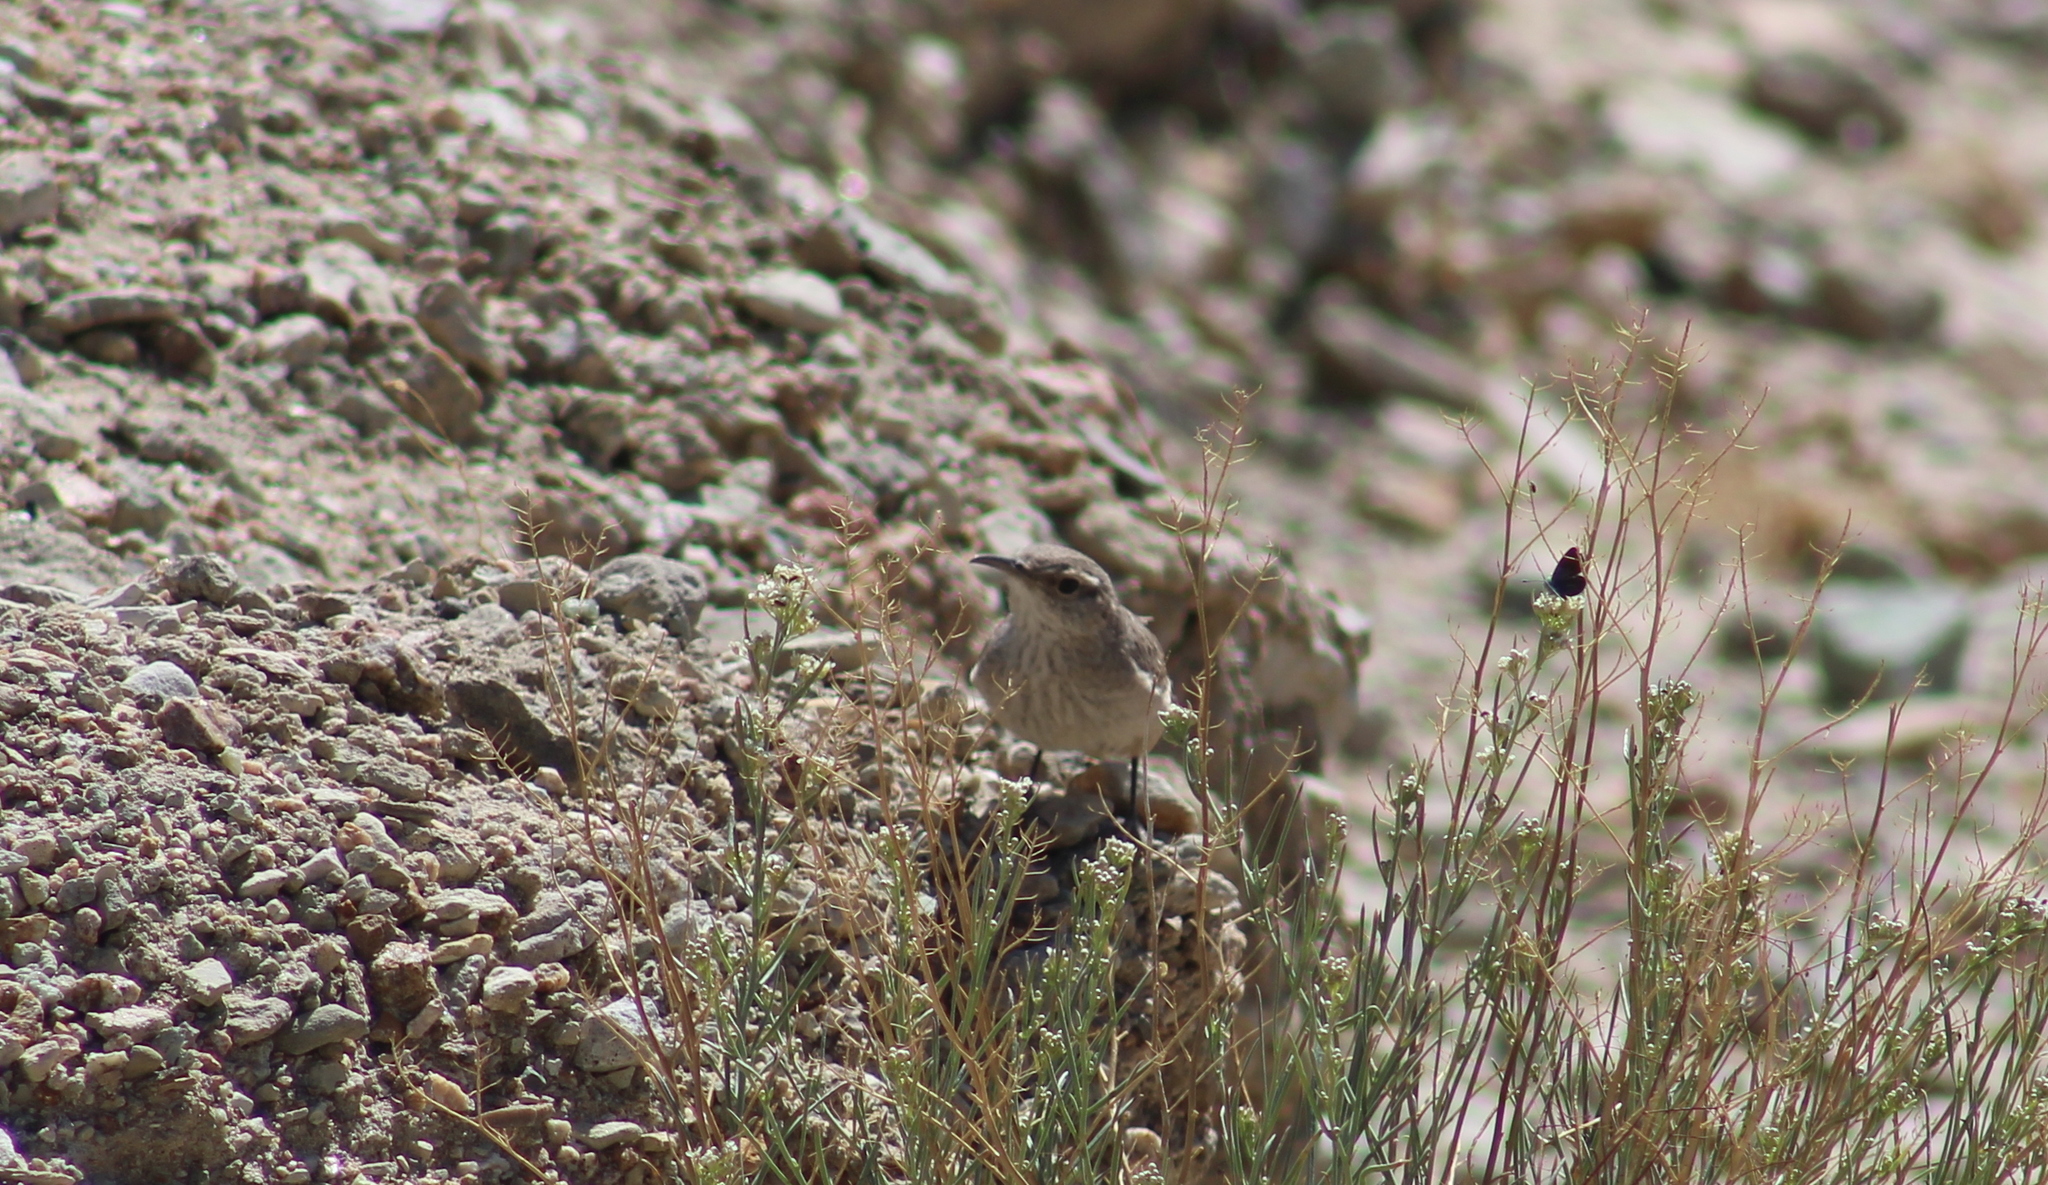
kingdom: Animalia
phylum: Chordata
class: Aves
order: Passeriformes
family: Troglodytidae
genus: Salpinctes
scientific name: Salpinctes obsoletus
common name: Rock wren
